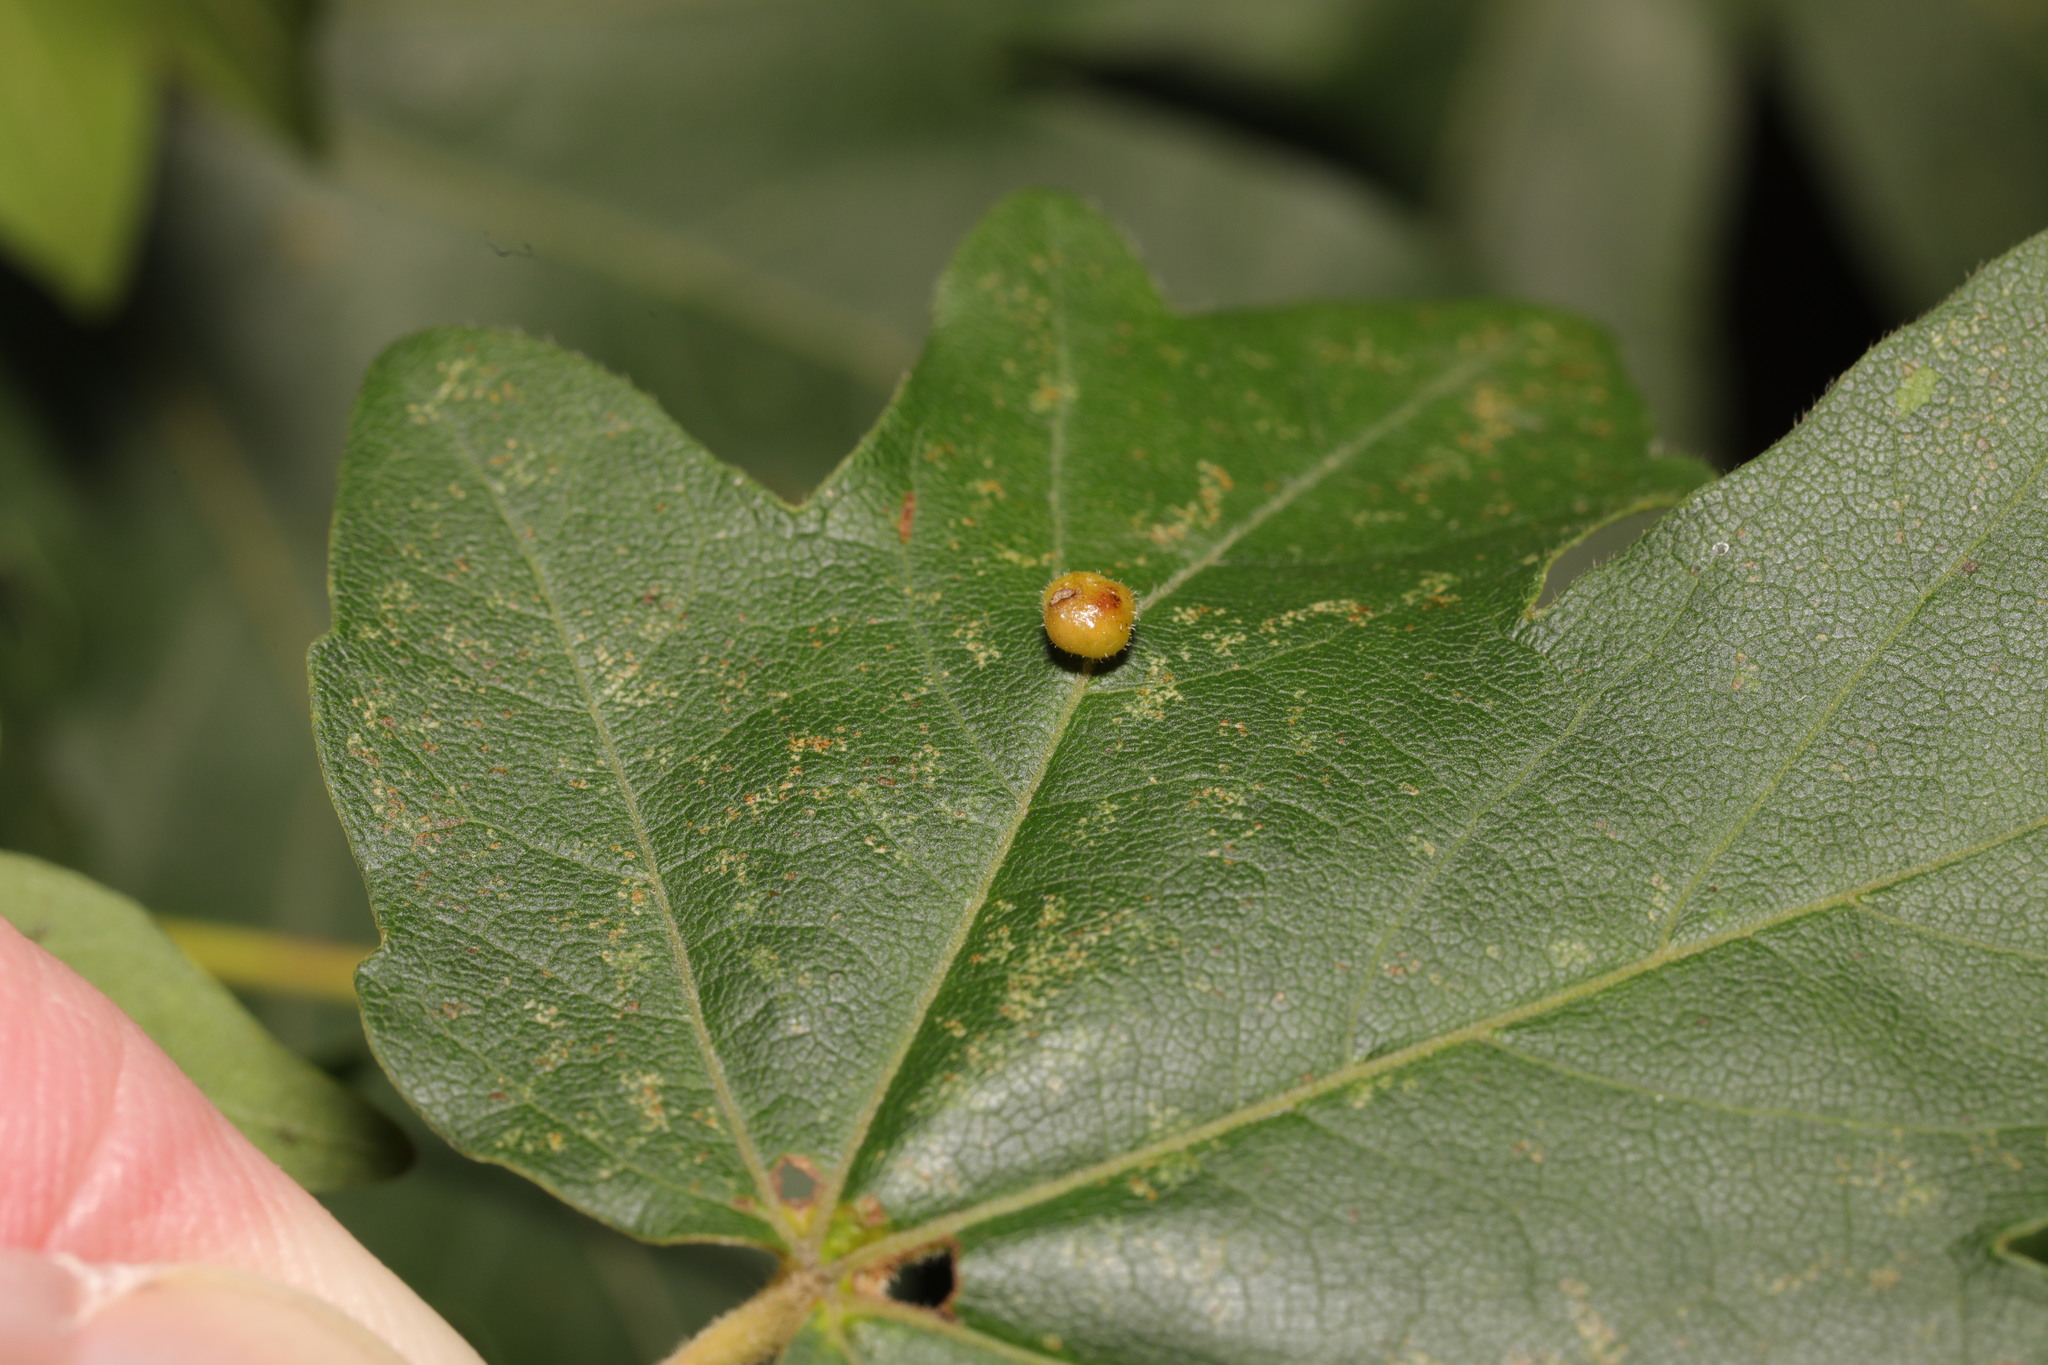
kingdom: Animalia
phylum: Arthropoda
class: Arachnida
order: Trombidiformes
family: Eriophyidae
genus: Aceria
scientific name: Aceria macrochelus
